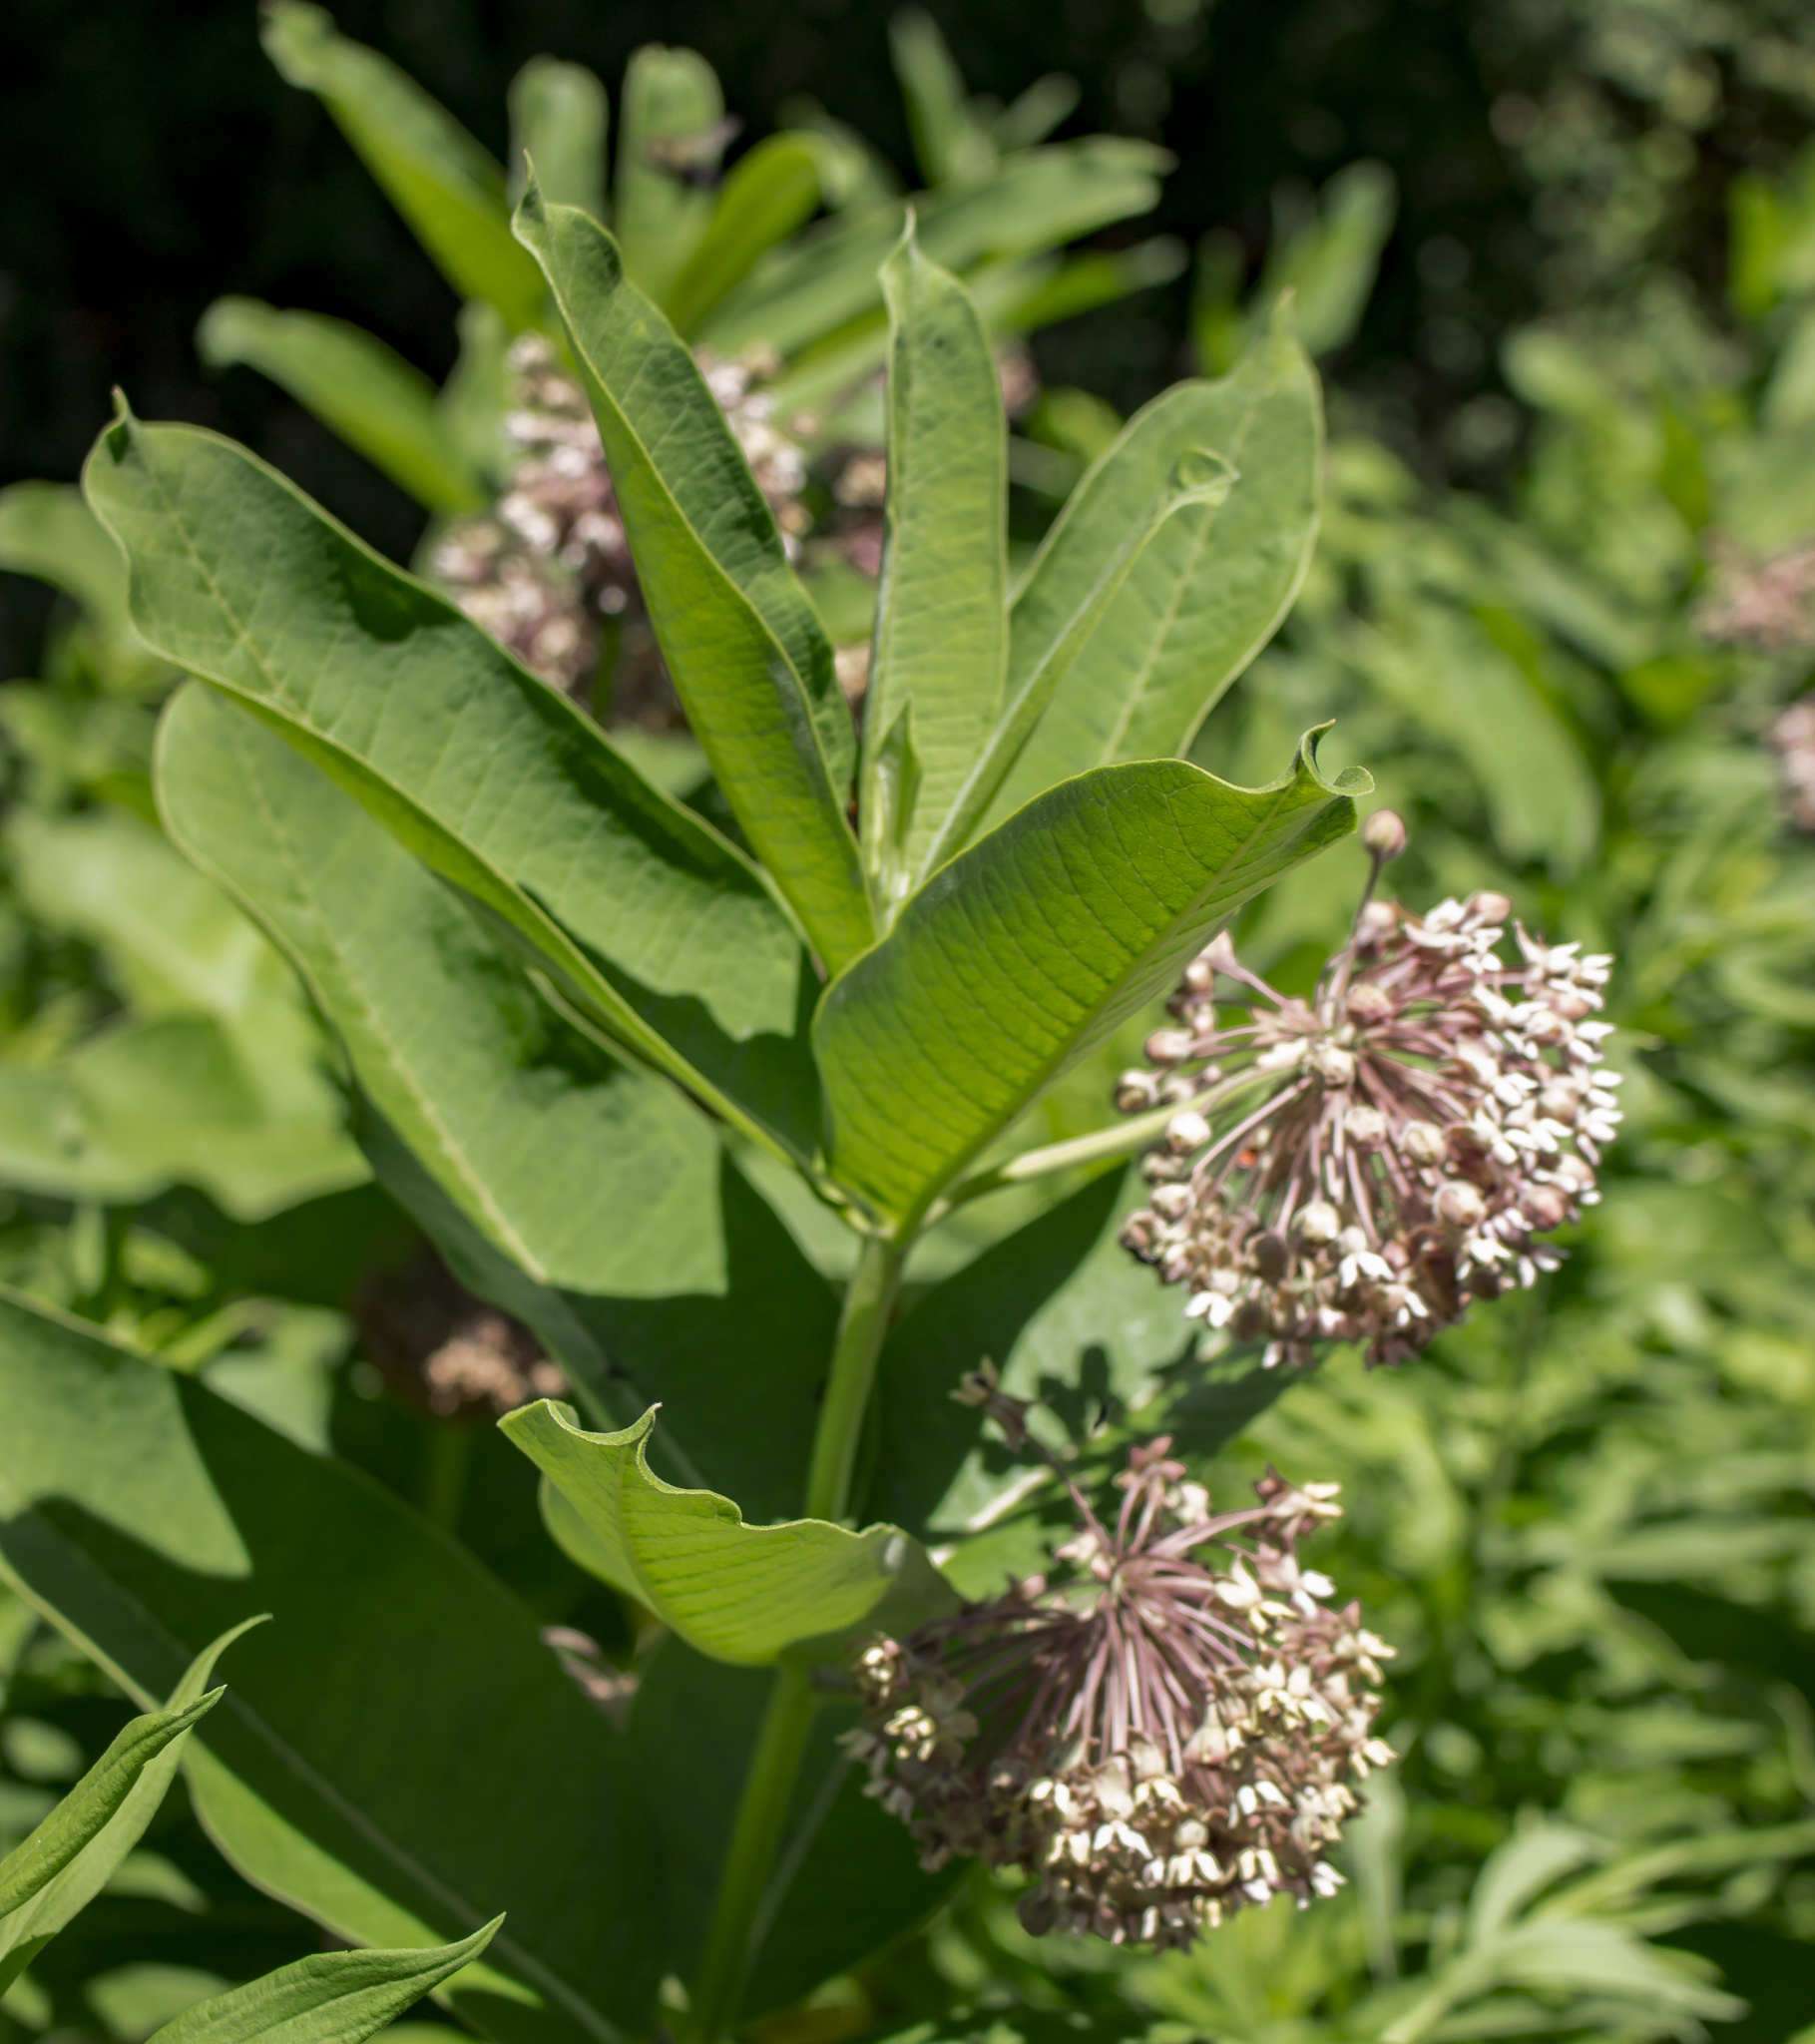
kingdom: Plantae
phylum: Tracheophyta
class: Magnoliopsida
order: Gentianales
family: Apocynaceae
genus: Asclepias
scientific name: Asclepias syriaca
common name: Common milkweed
